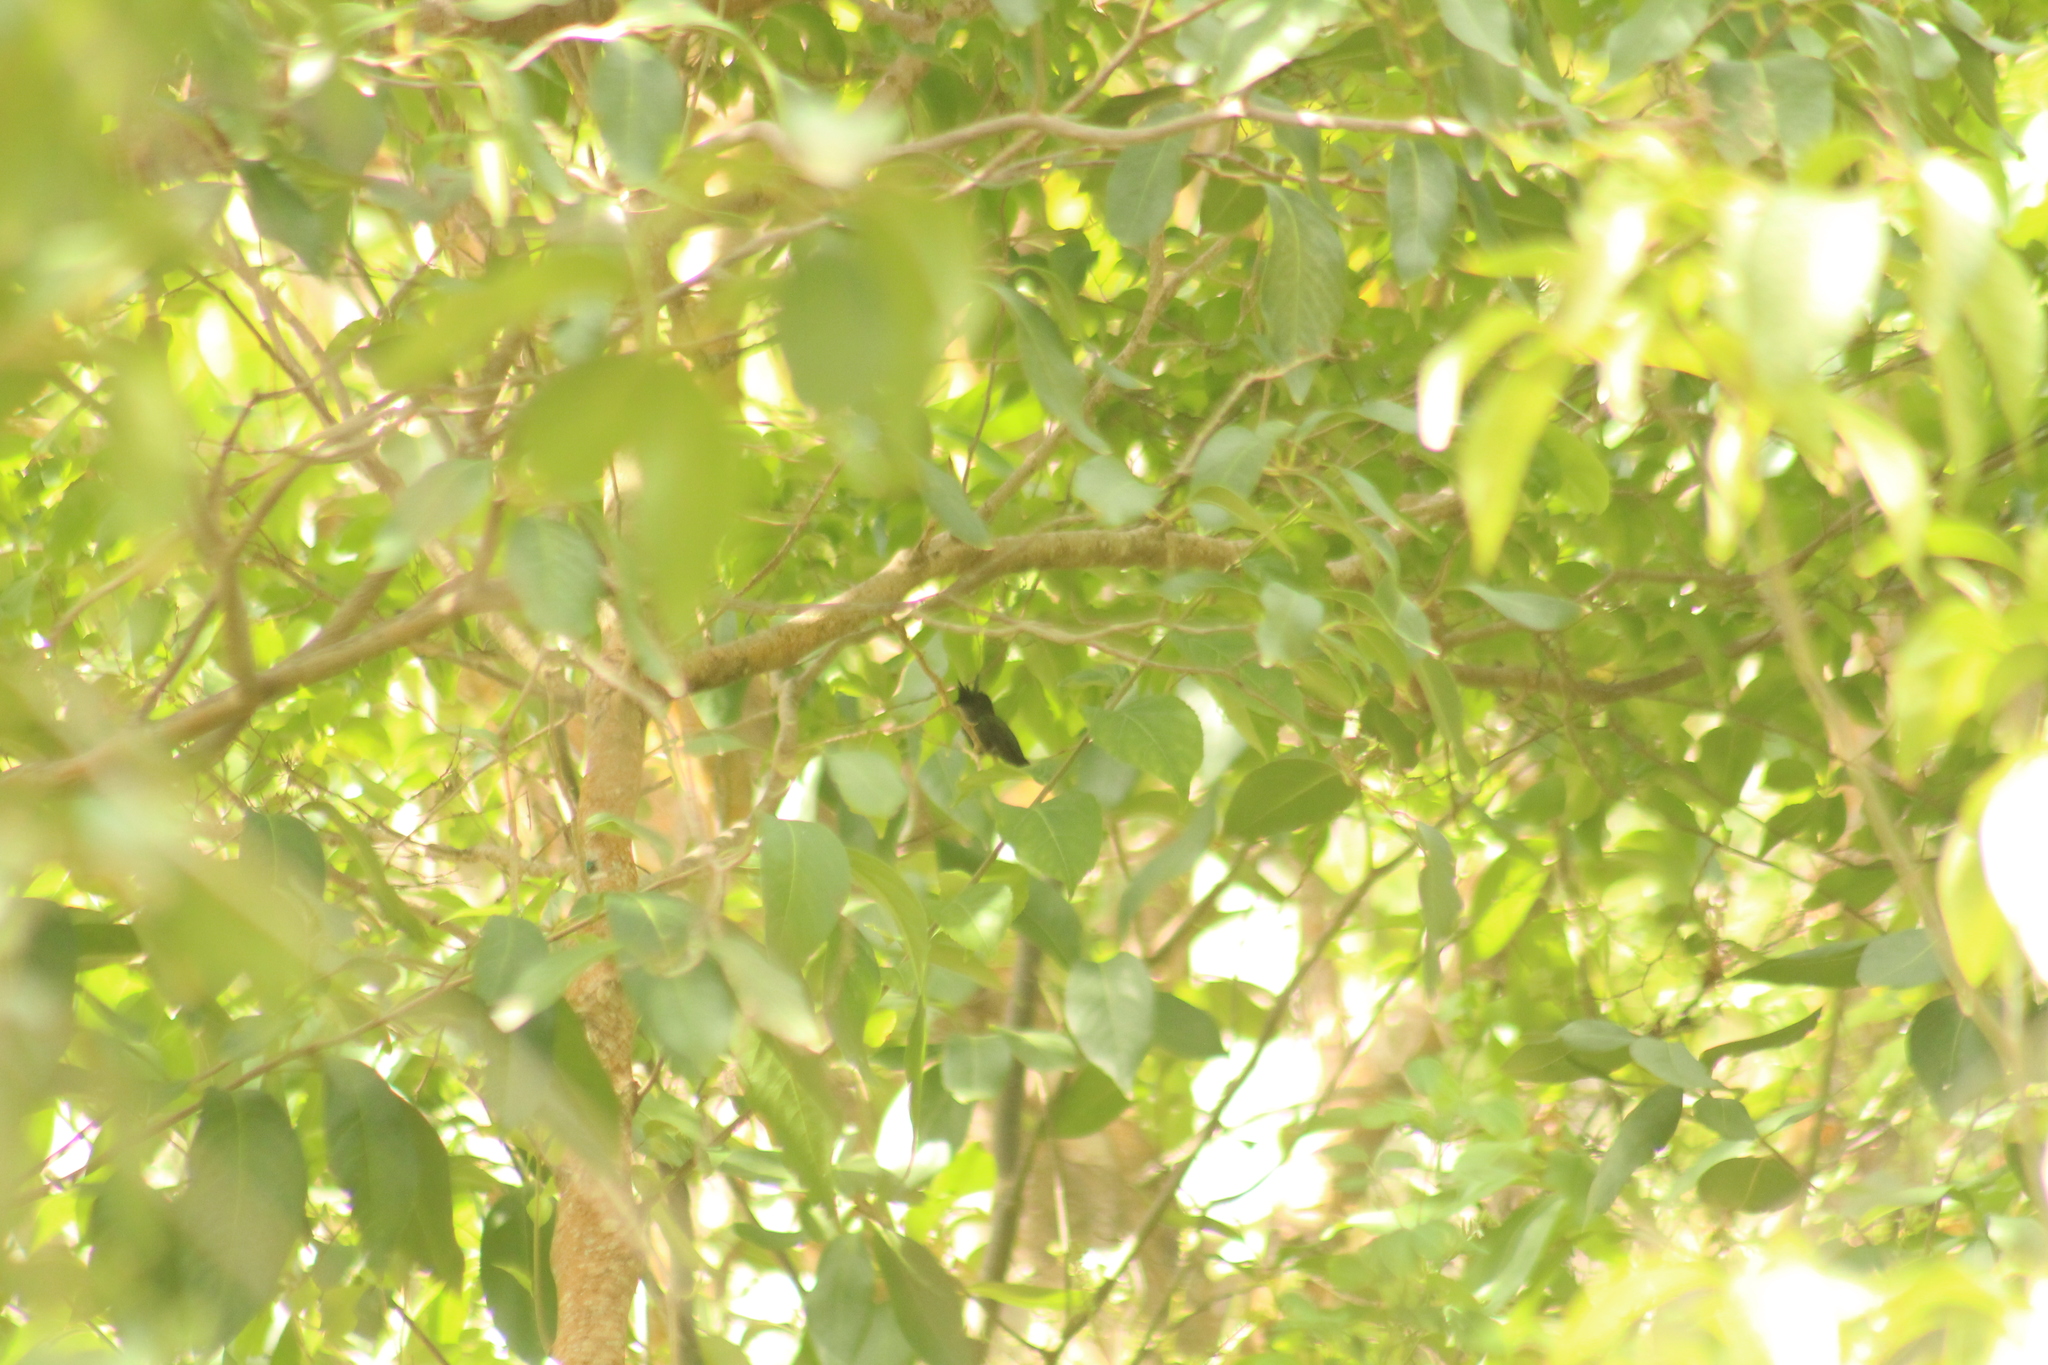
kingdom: Animalia
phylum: Chordata
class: Aves
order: Apodiformes
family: Trochilidae
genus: Orthorhyncus
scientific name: Orthorhyncus cristatus
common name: Antillean crested hummingbird
